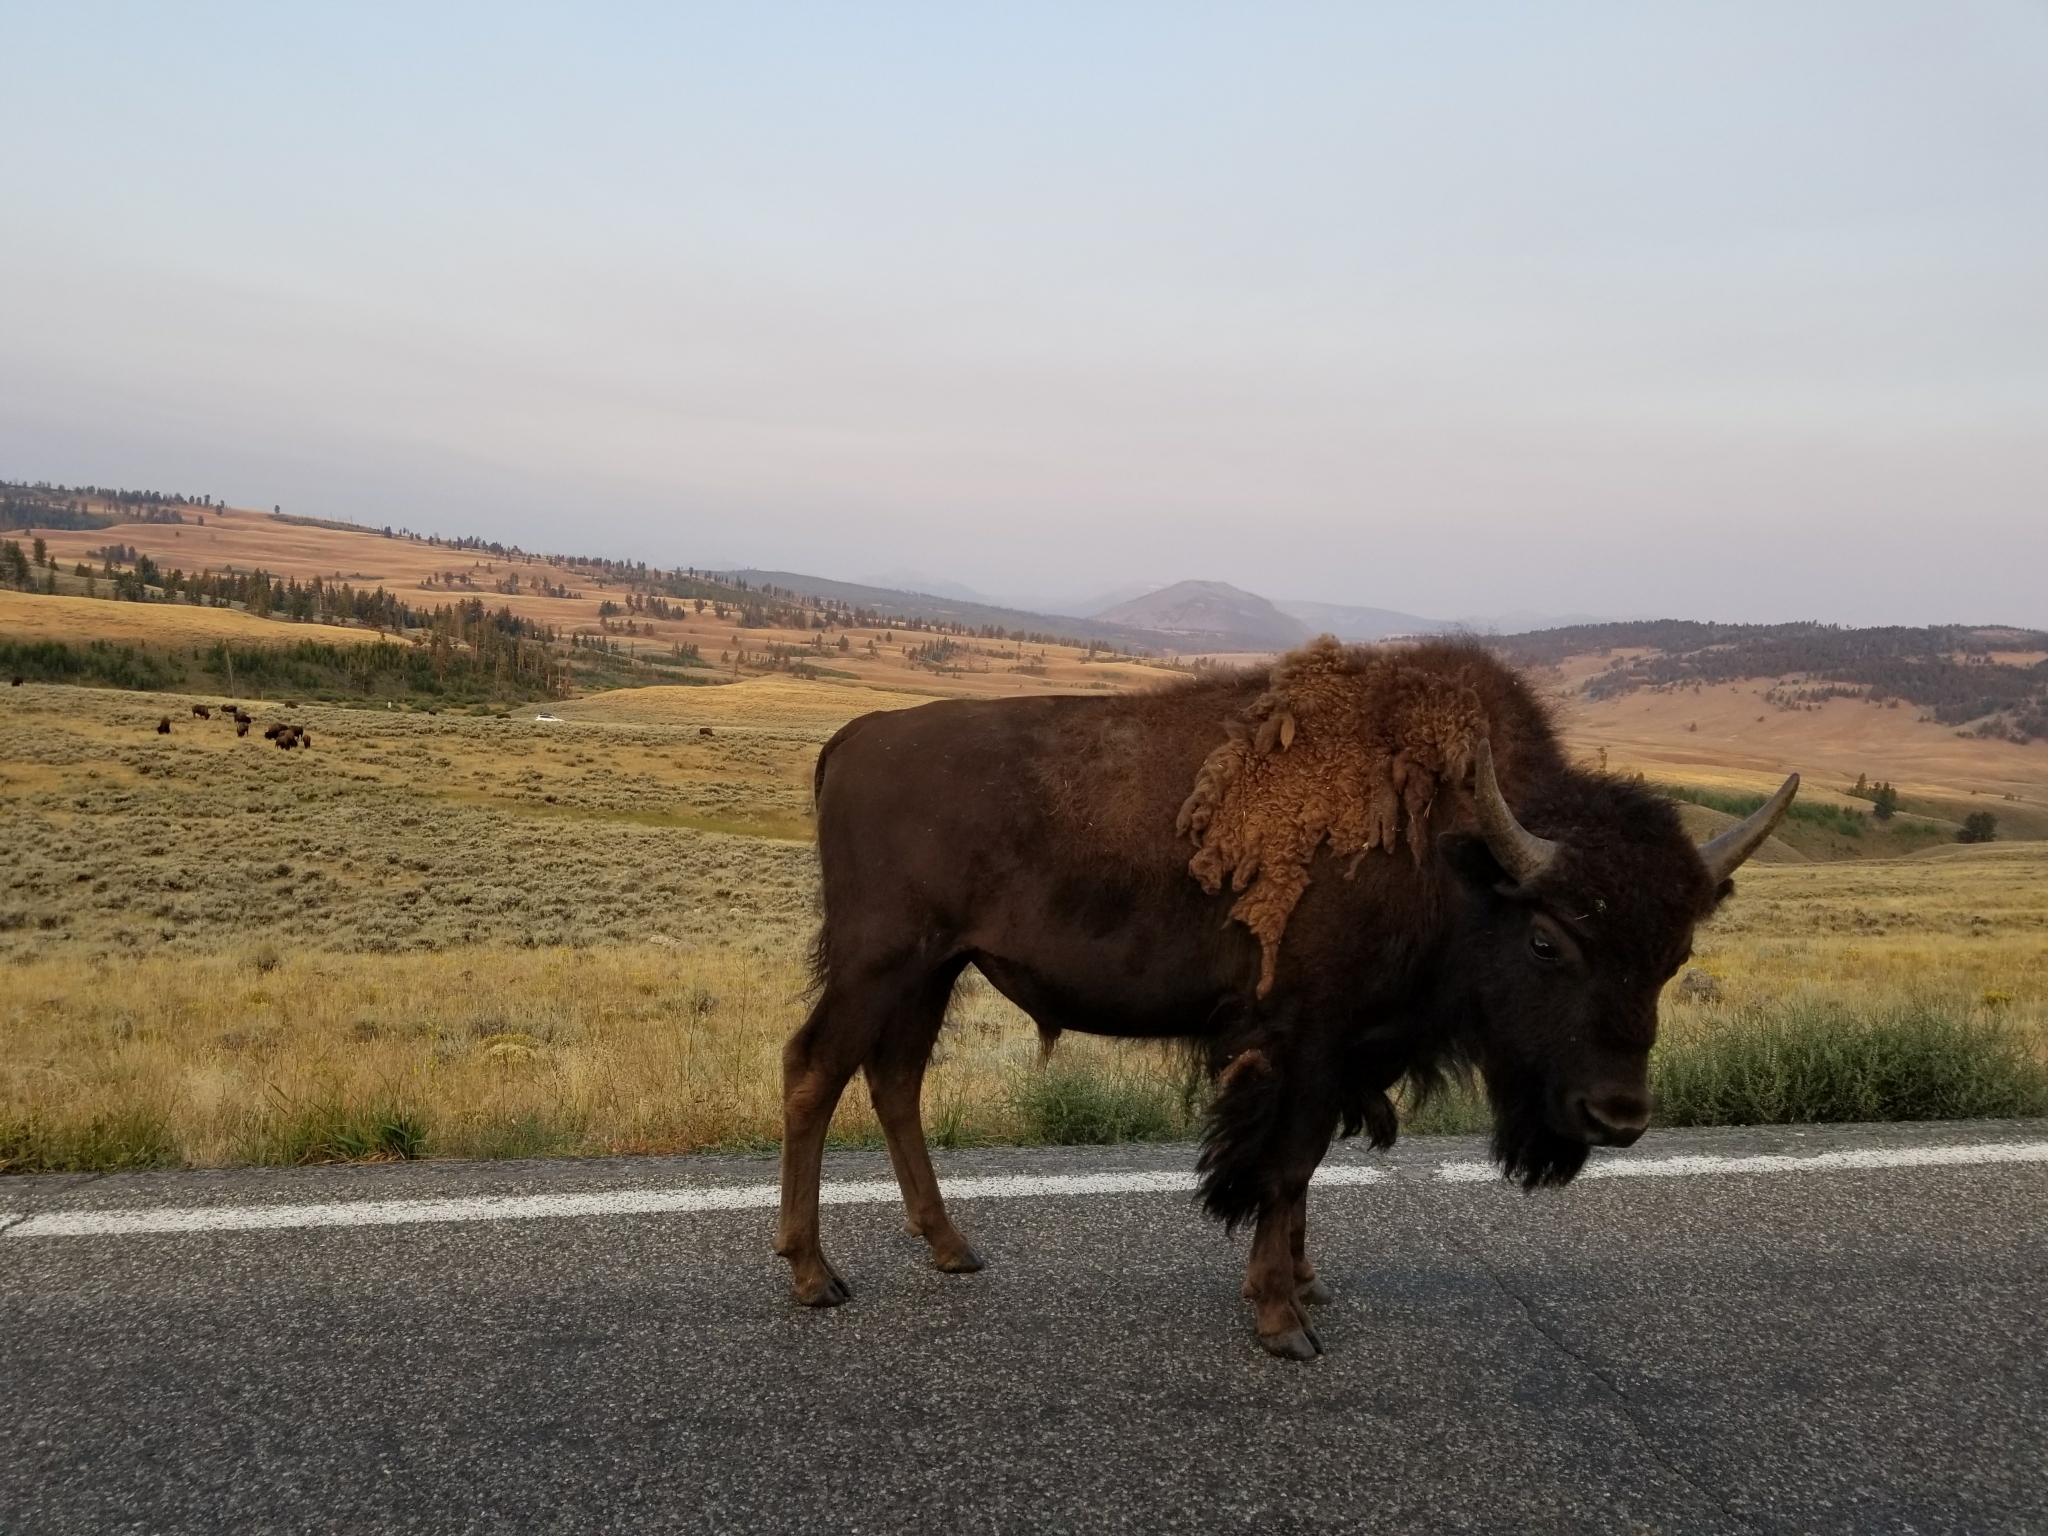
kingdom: Animalia
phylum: Chordata
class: Mammalia
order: Artiodactyla
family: Bovidae
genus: Bison
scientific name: Bison bison
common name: American bison
